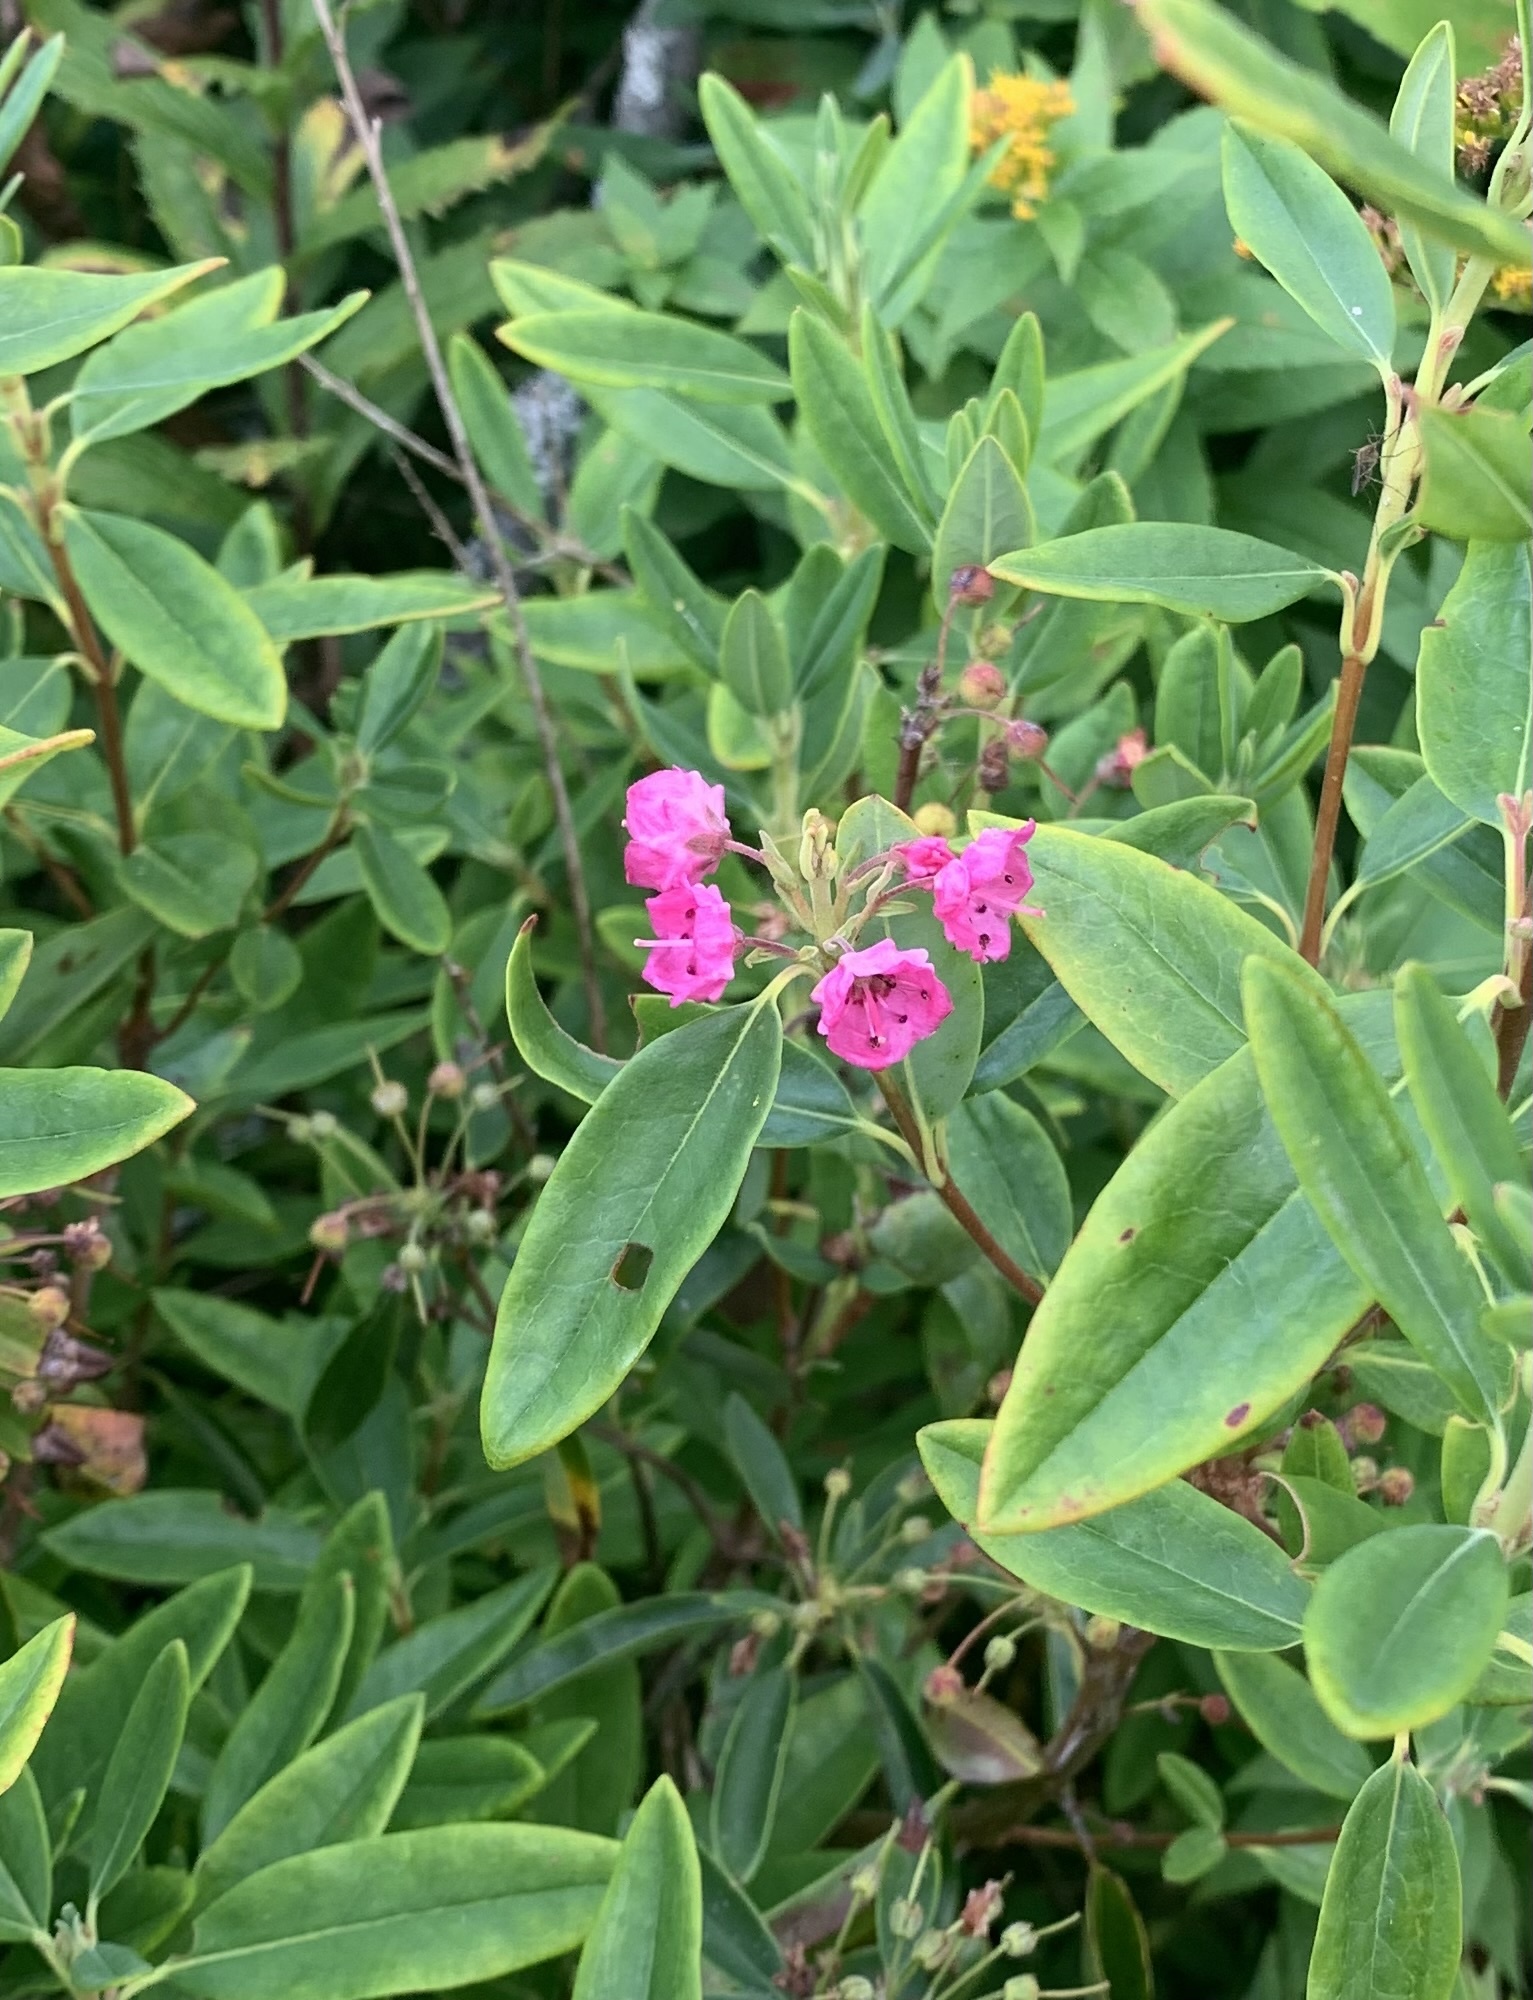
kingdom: Plantae
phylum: Tracheophyta
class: Magnoliopsida
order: Ericales
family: Ericaceae
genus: Kalmia
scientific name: Kalmia angustifolia
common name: Sheep-laurel
